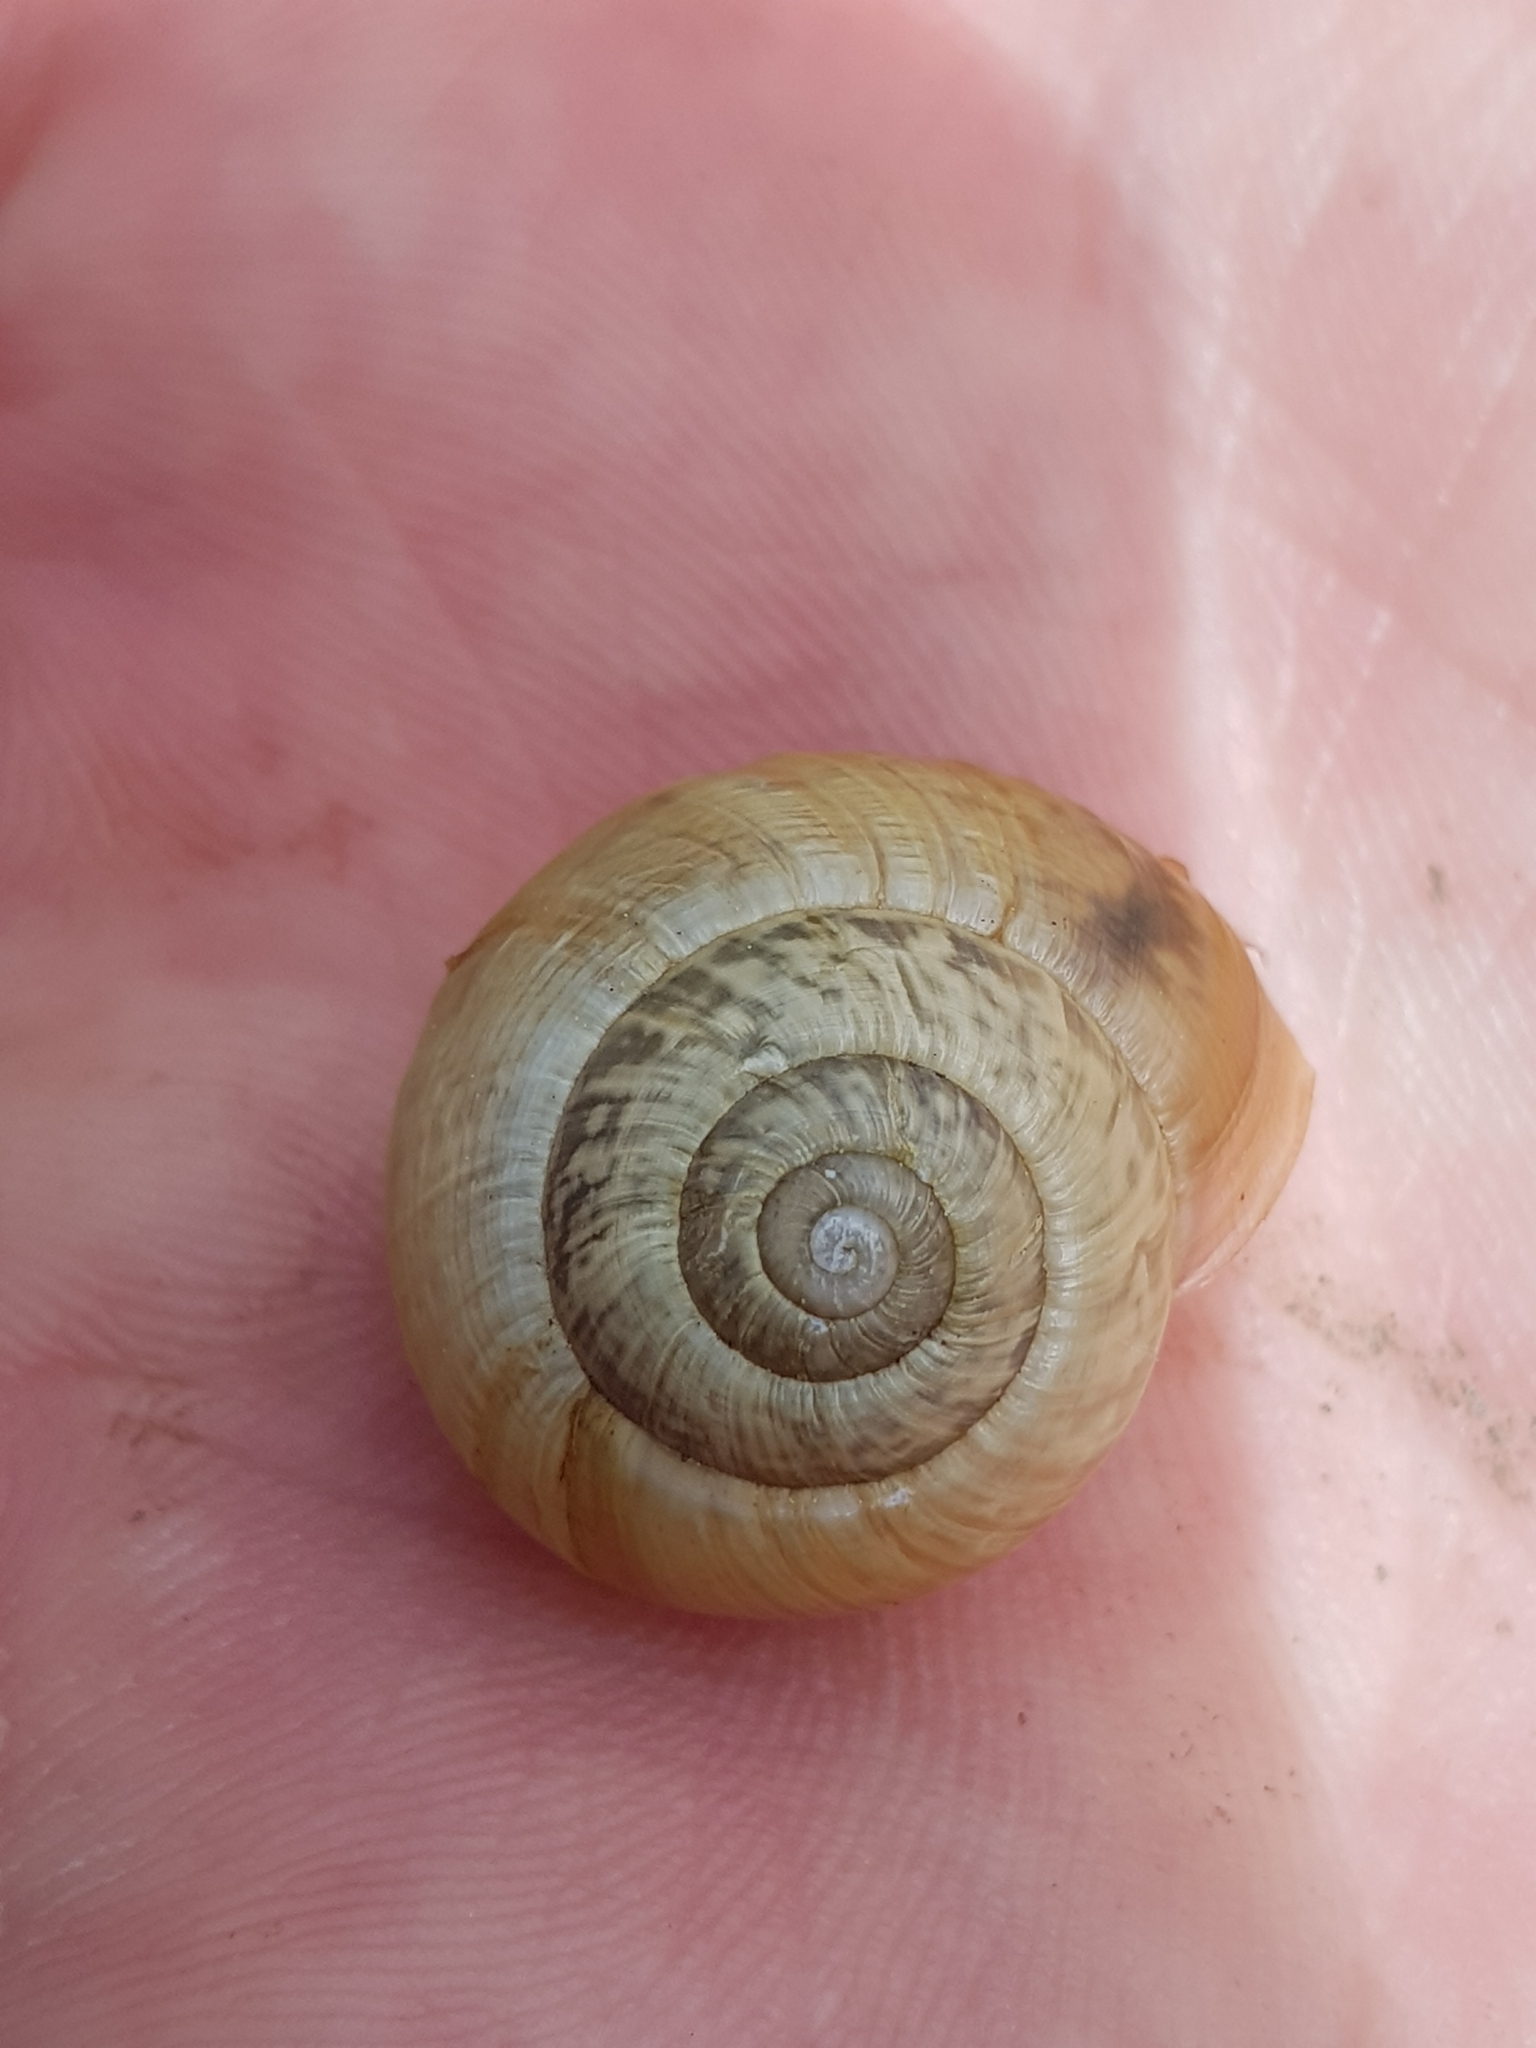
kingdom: Animalia
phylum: Mollusca
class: Gastropoda
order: Stylommatophora
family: Helicidae
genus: Arianta
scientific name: Arianta arbustorum
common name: Copse snail
